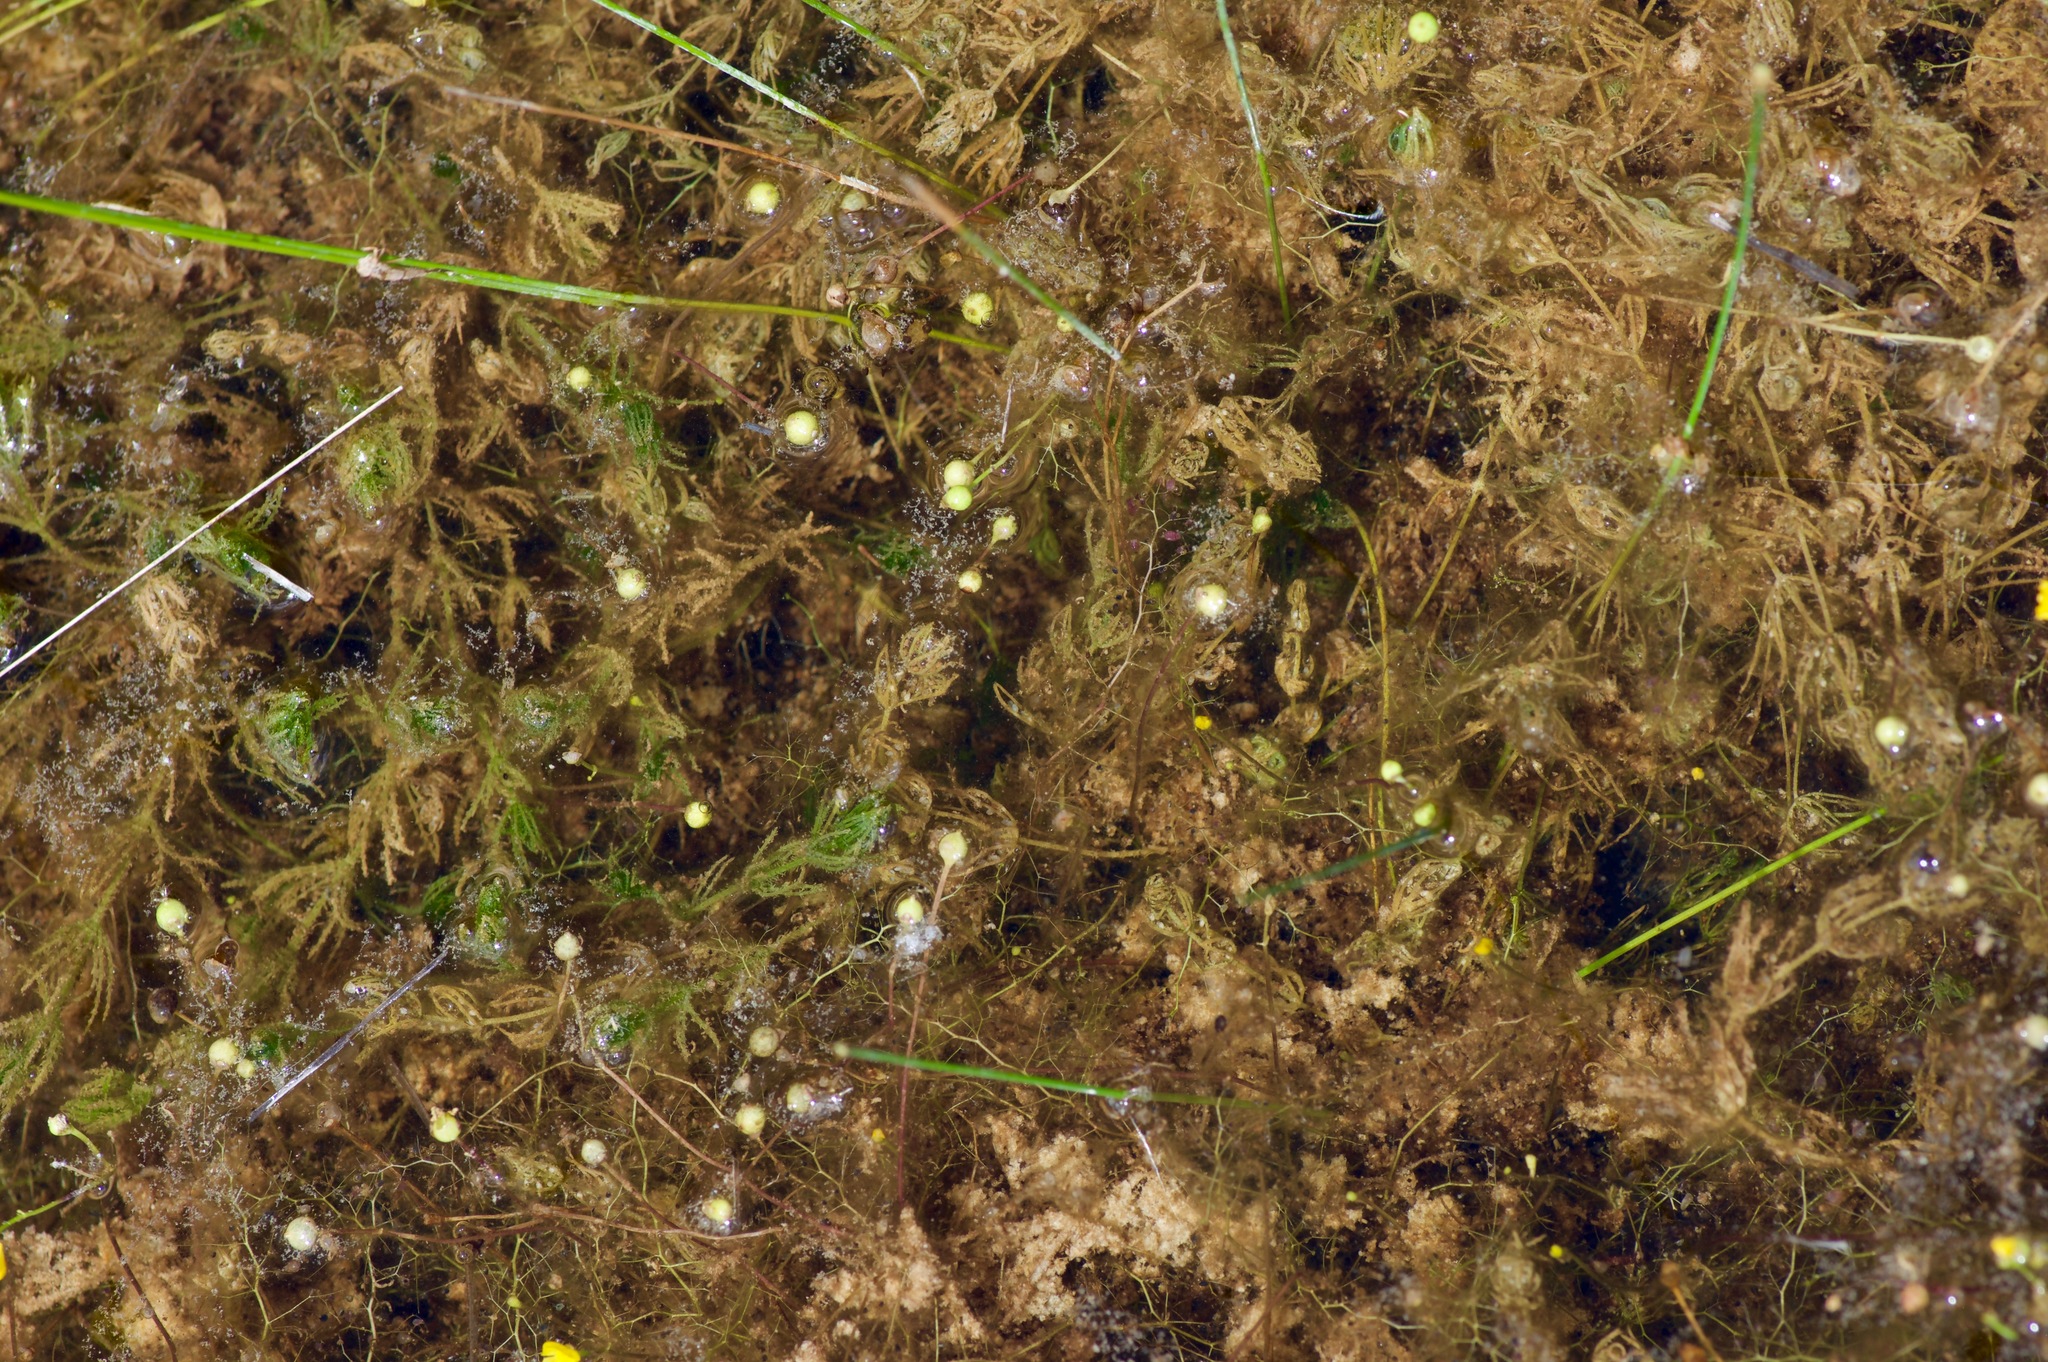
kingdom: Plantae
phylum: Tracheophyta
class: Magnoliopsida
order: Lamiales
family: Lentibulariaceae
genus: Utricularia
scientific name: Utricularia gibba
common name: Humped bladderwort
